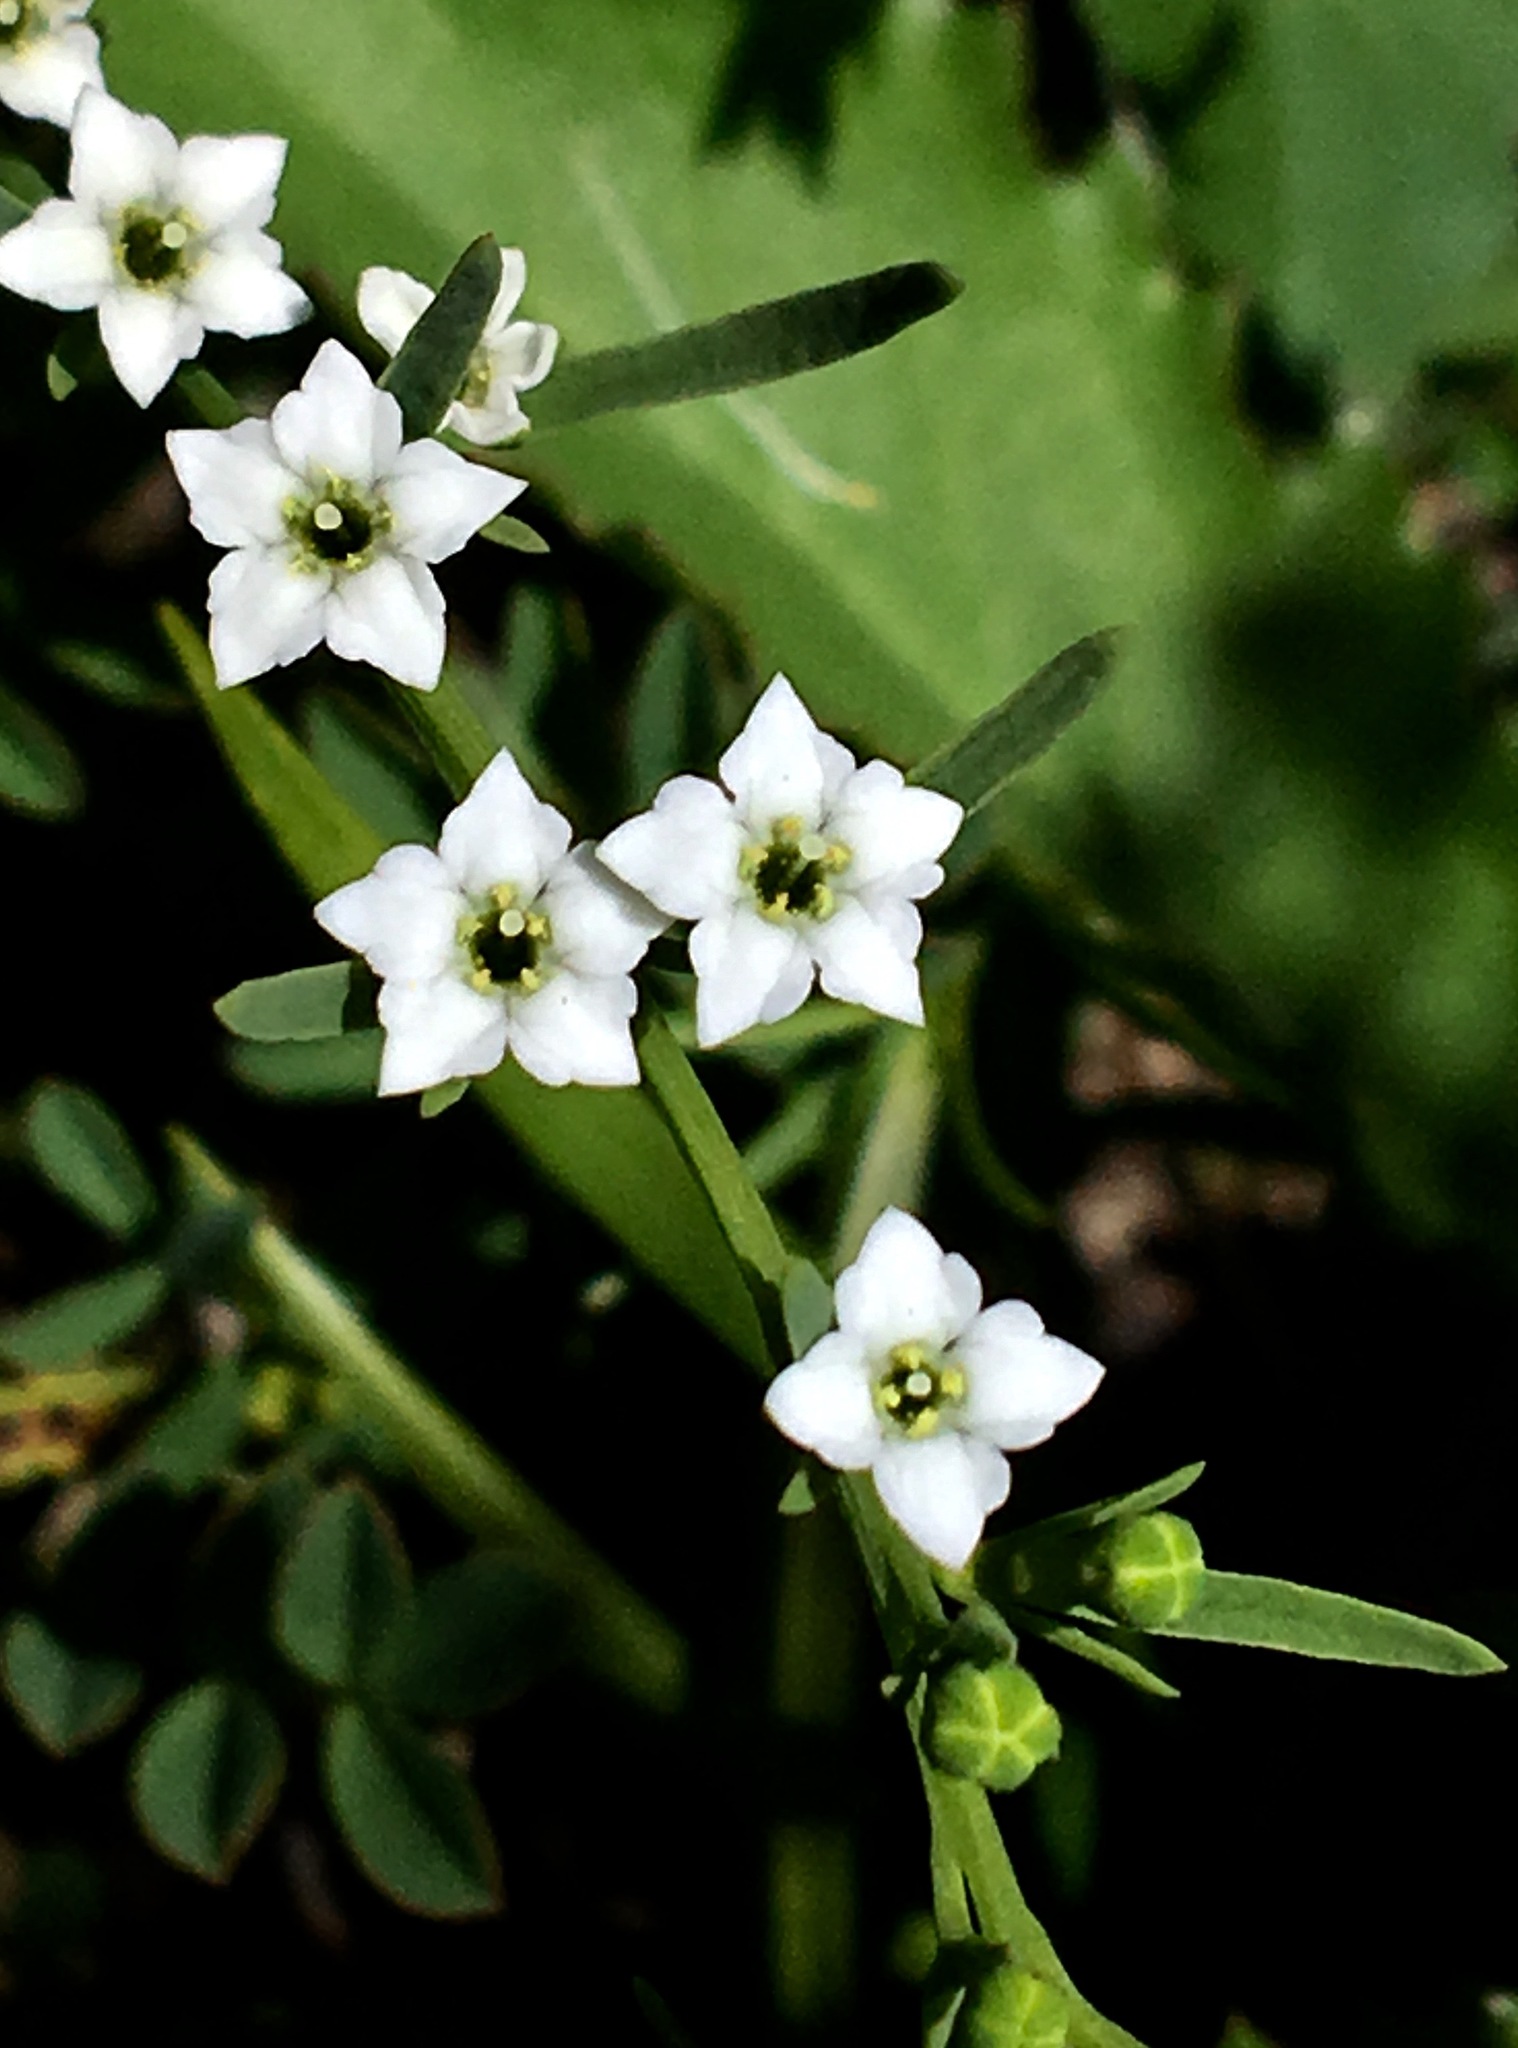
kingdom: Plantae
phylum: Tracheophyta
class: Magnoliopsida
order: Santalales
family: Thesiaceae
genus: Thesium
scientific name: Thesium pyrenaicum
